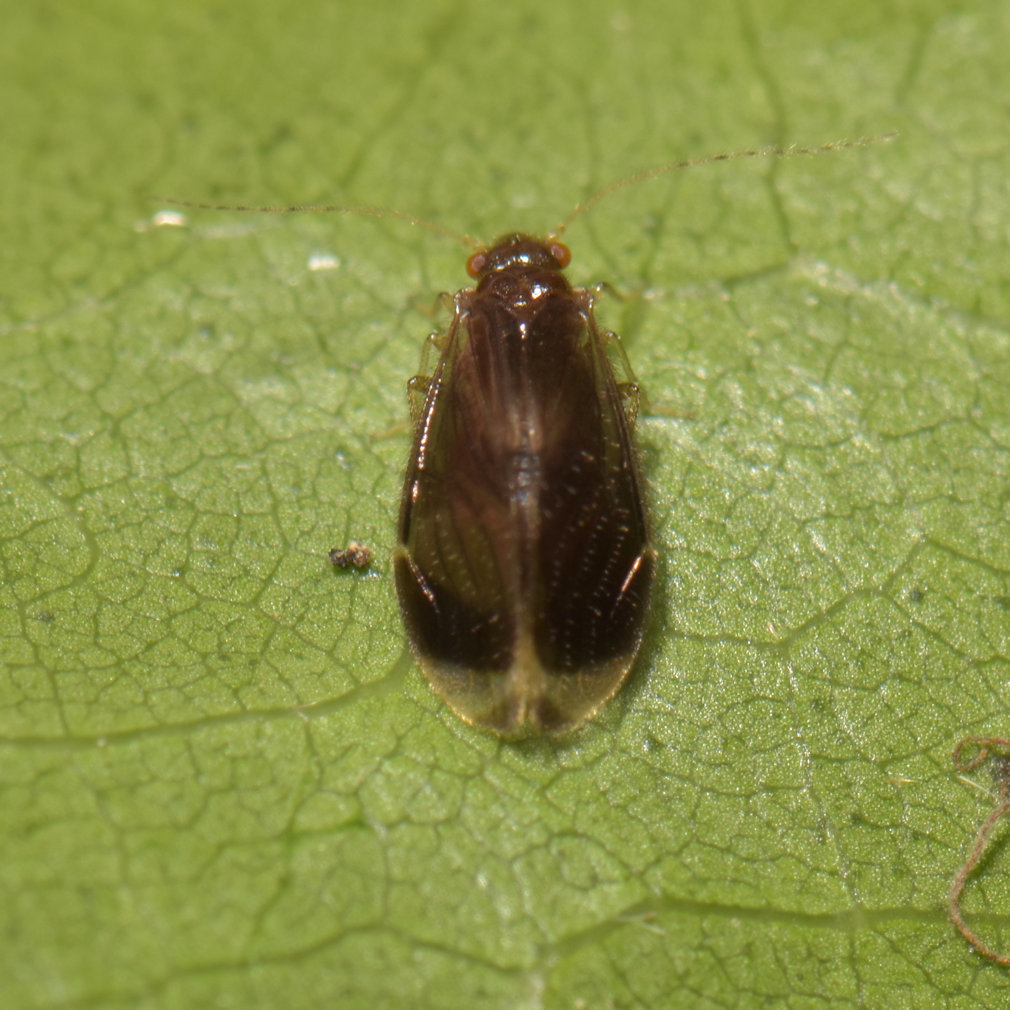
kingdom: Animalia
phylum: Arthropoda
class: Insecta
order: Psocodea
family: Amphipsocidae
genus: Polypsocus
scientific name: Polypsocus corruptus
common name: Corrupt barklouse
